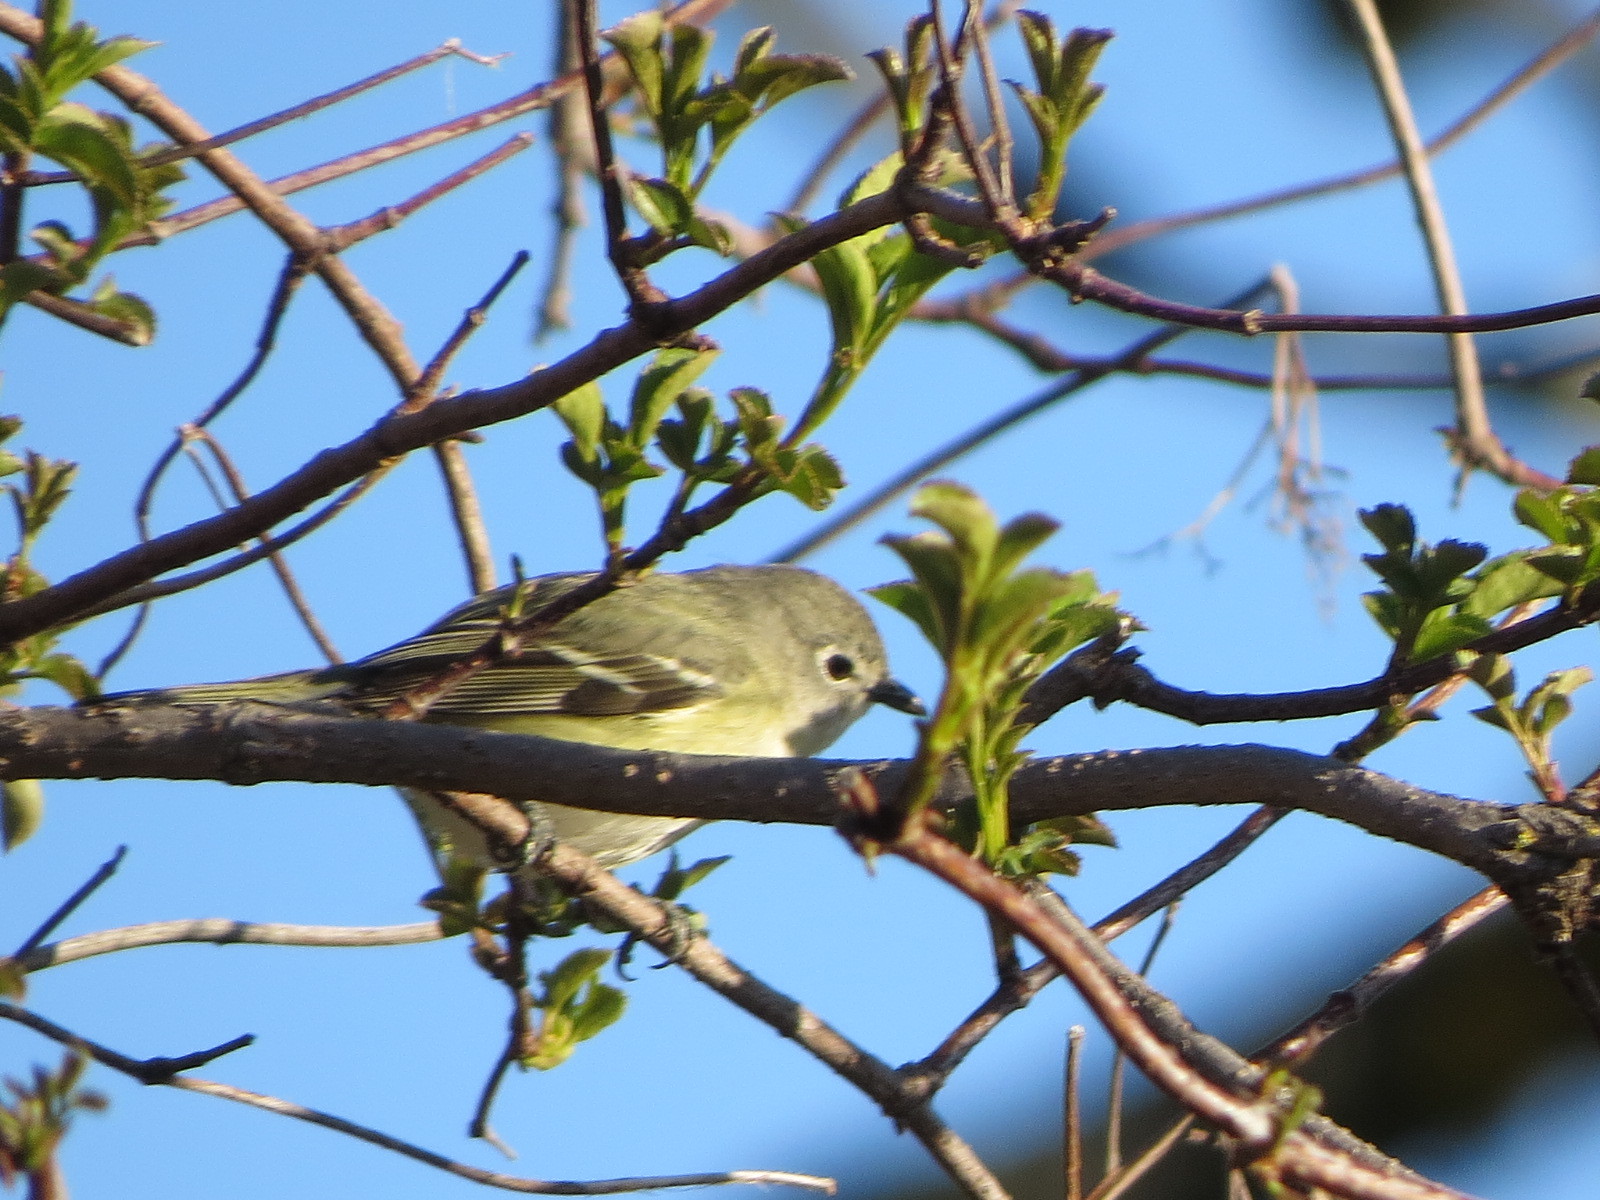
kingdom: Animalia
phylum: Chordata
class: Aves
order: Passeriformes
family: Vireonidae
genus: Vireo
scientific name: Vireo cassinii
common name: Cassin's vireo
